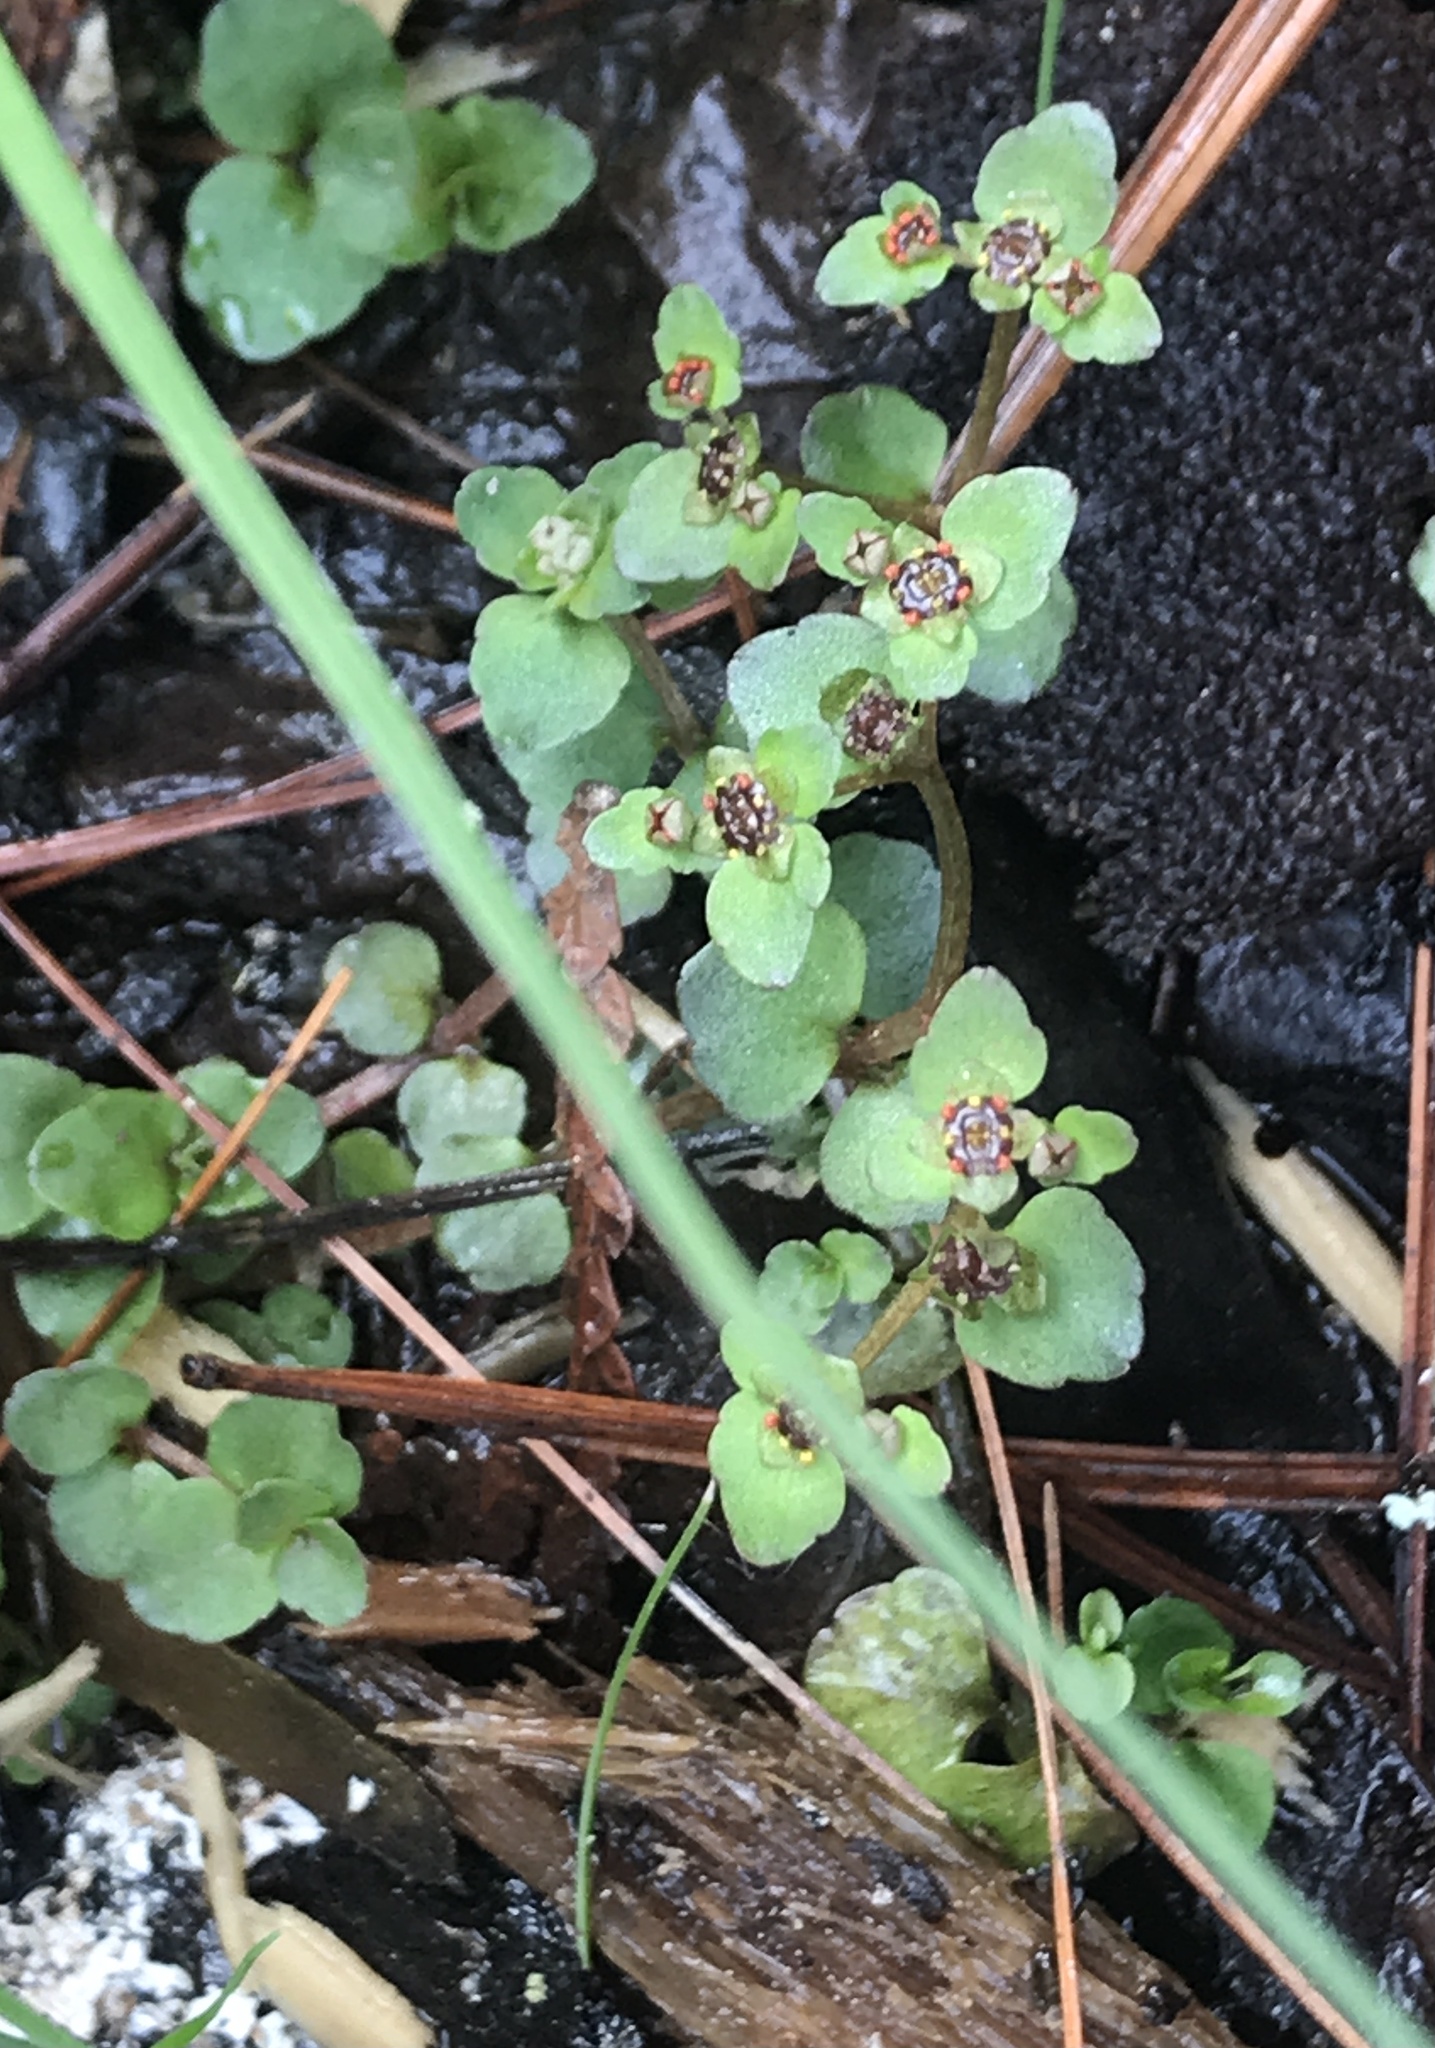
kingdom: Plantae
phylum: Tracheophyta
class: Magnoliopsida
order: Saxifragales
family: Saxifragaceae
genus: Chrysosplenium
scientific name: Chrysosplenium americanum
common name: American golden-saxifrage
